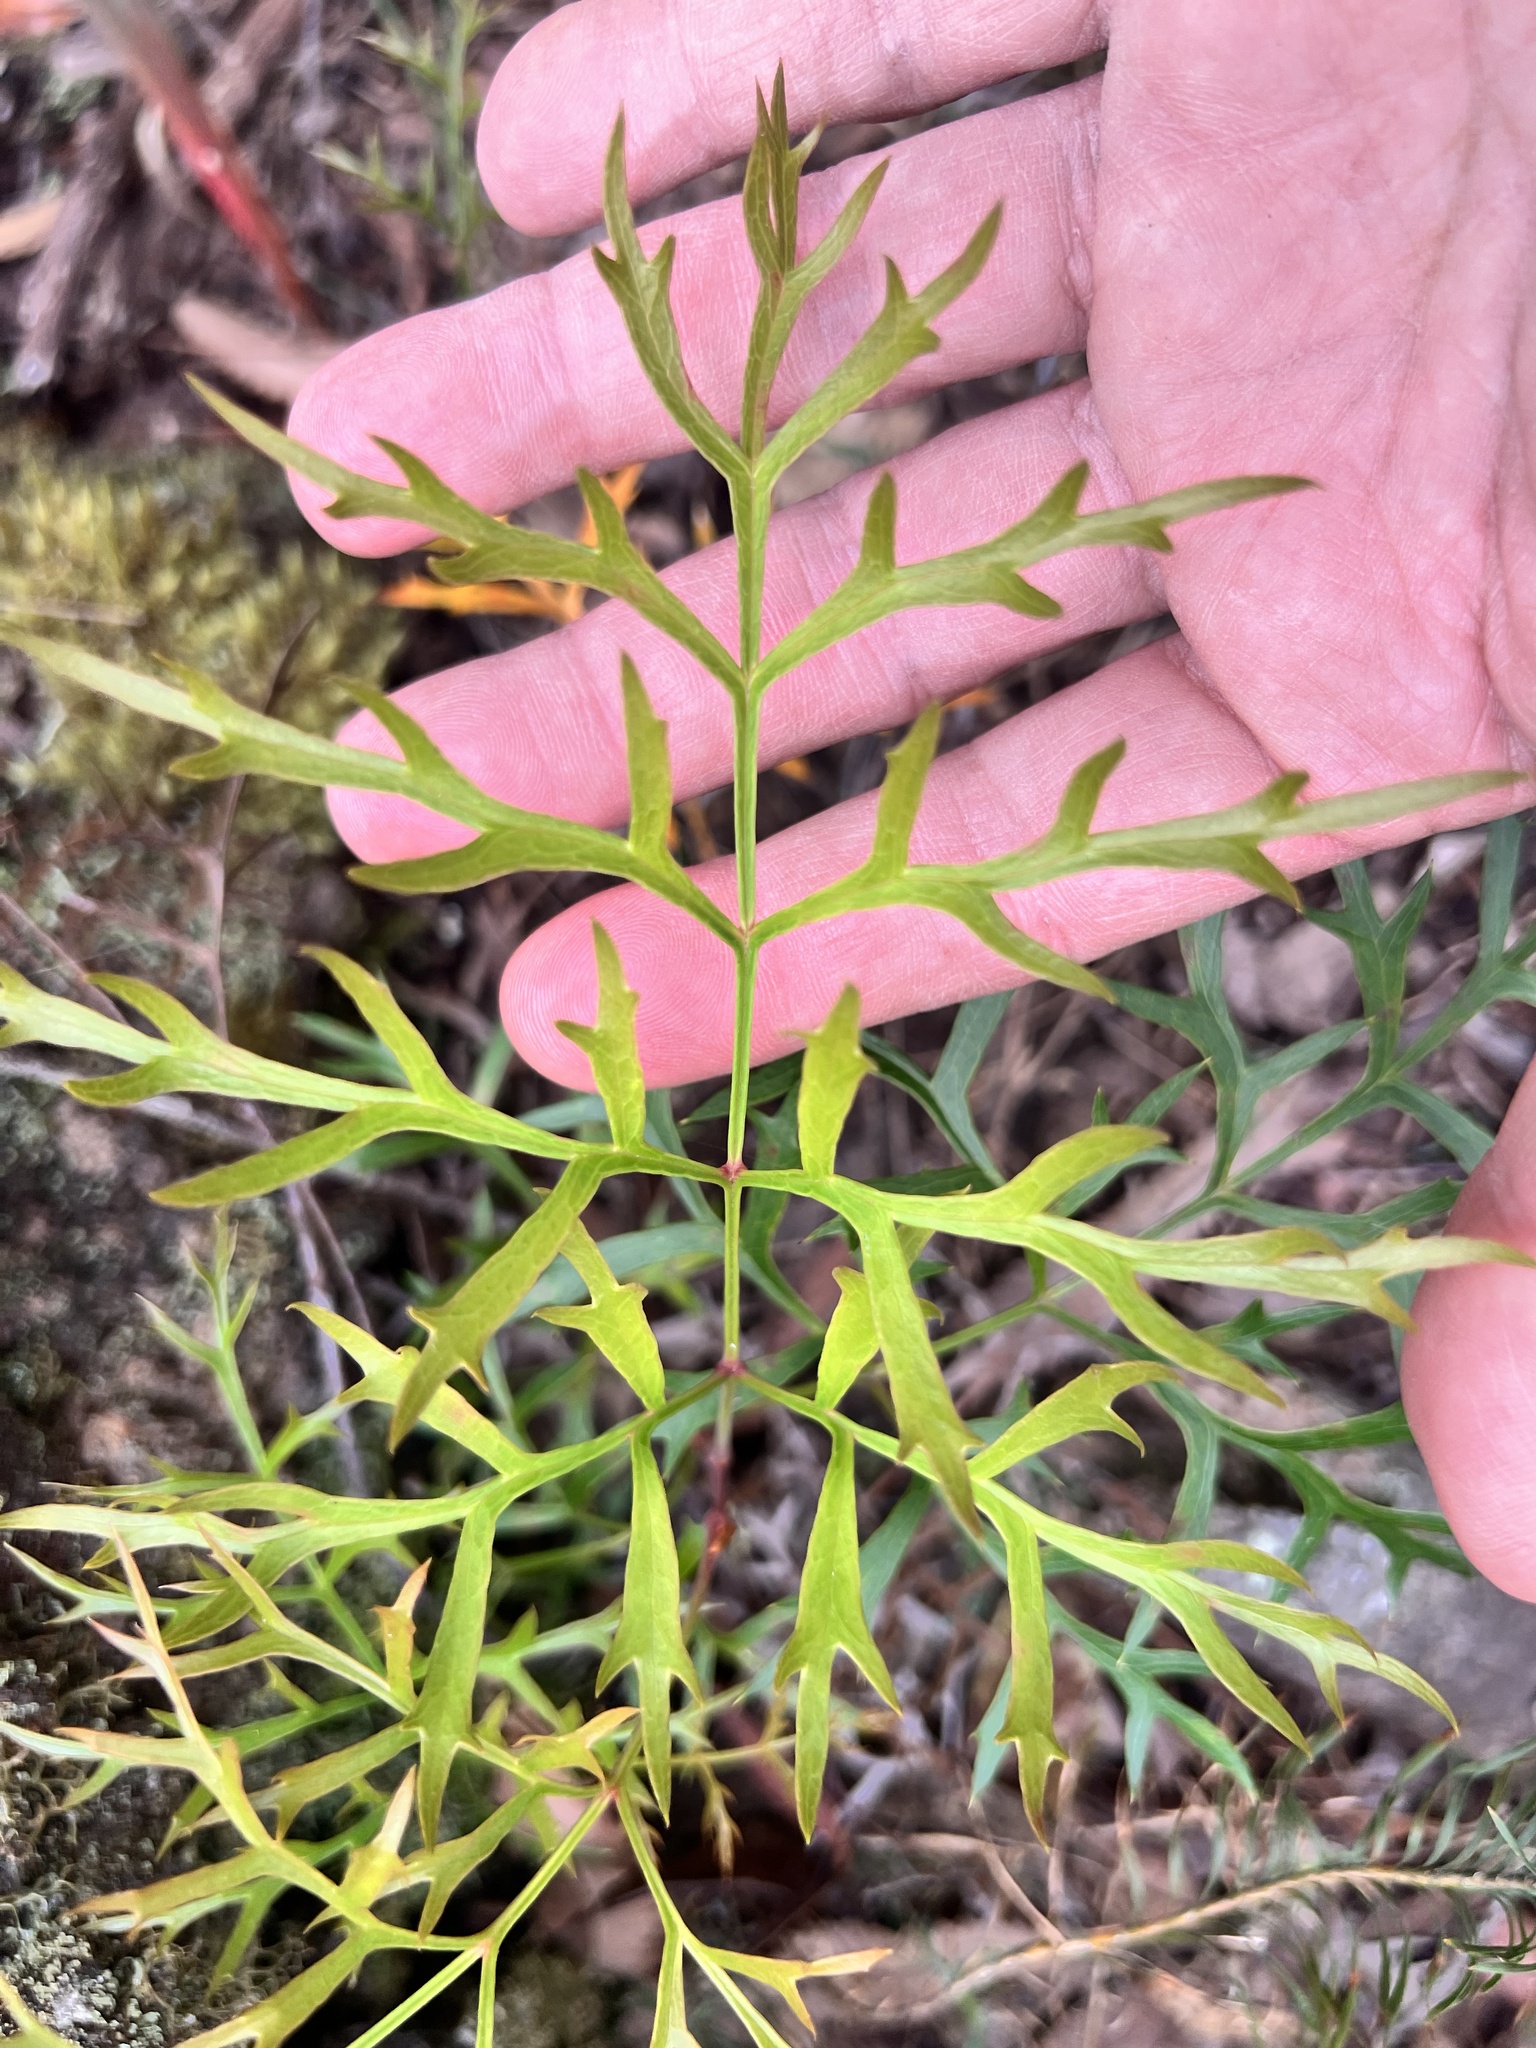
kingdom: Plantae
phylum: Tracheophyta
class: Magnoliopsida
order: Proteales
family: Proteaceae
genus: Lomatia
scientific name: Lomatia silaifolia
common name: Crinklebush
